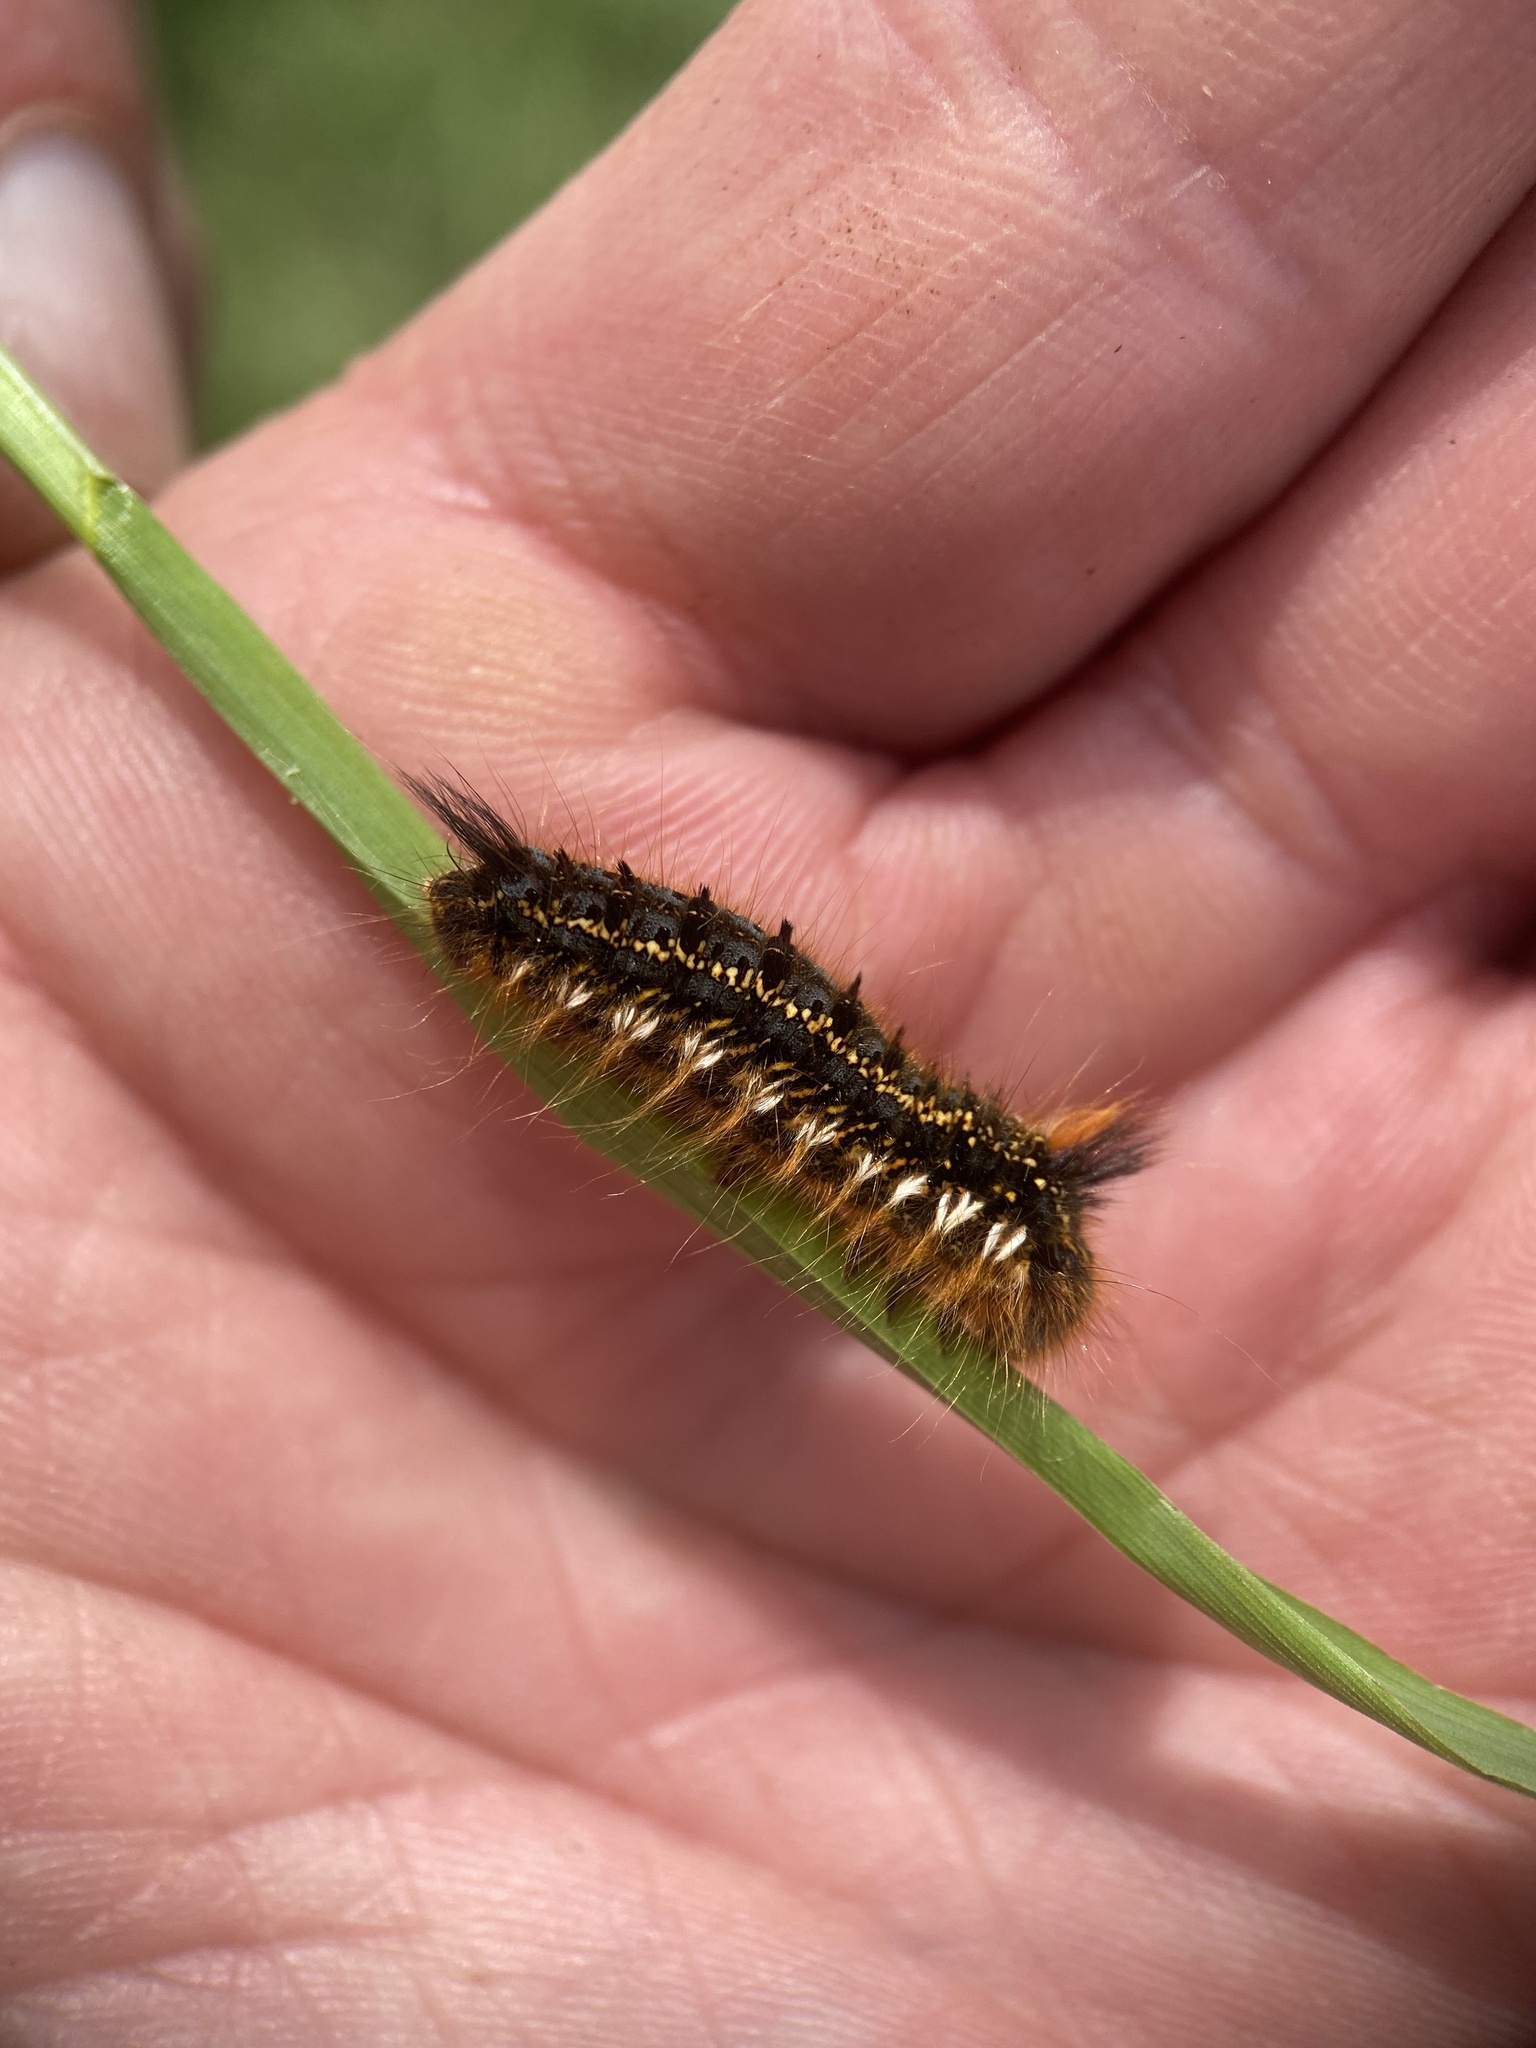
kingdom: Animalia
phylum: Arthropoda
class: Insecta
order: Lepidoptera
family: Lasiocampidae
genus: Euthrix
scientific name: Euthrix potatoria
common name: Drinker
